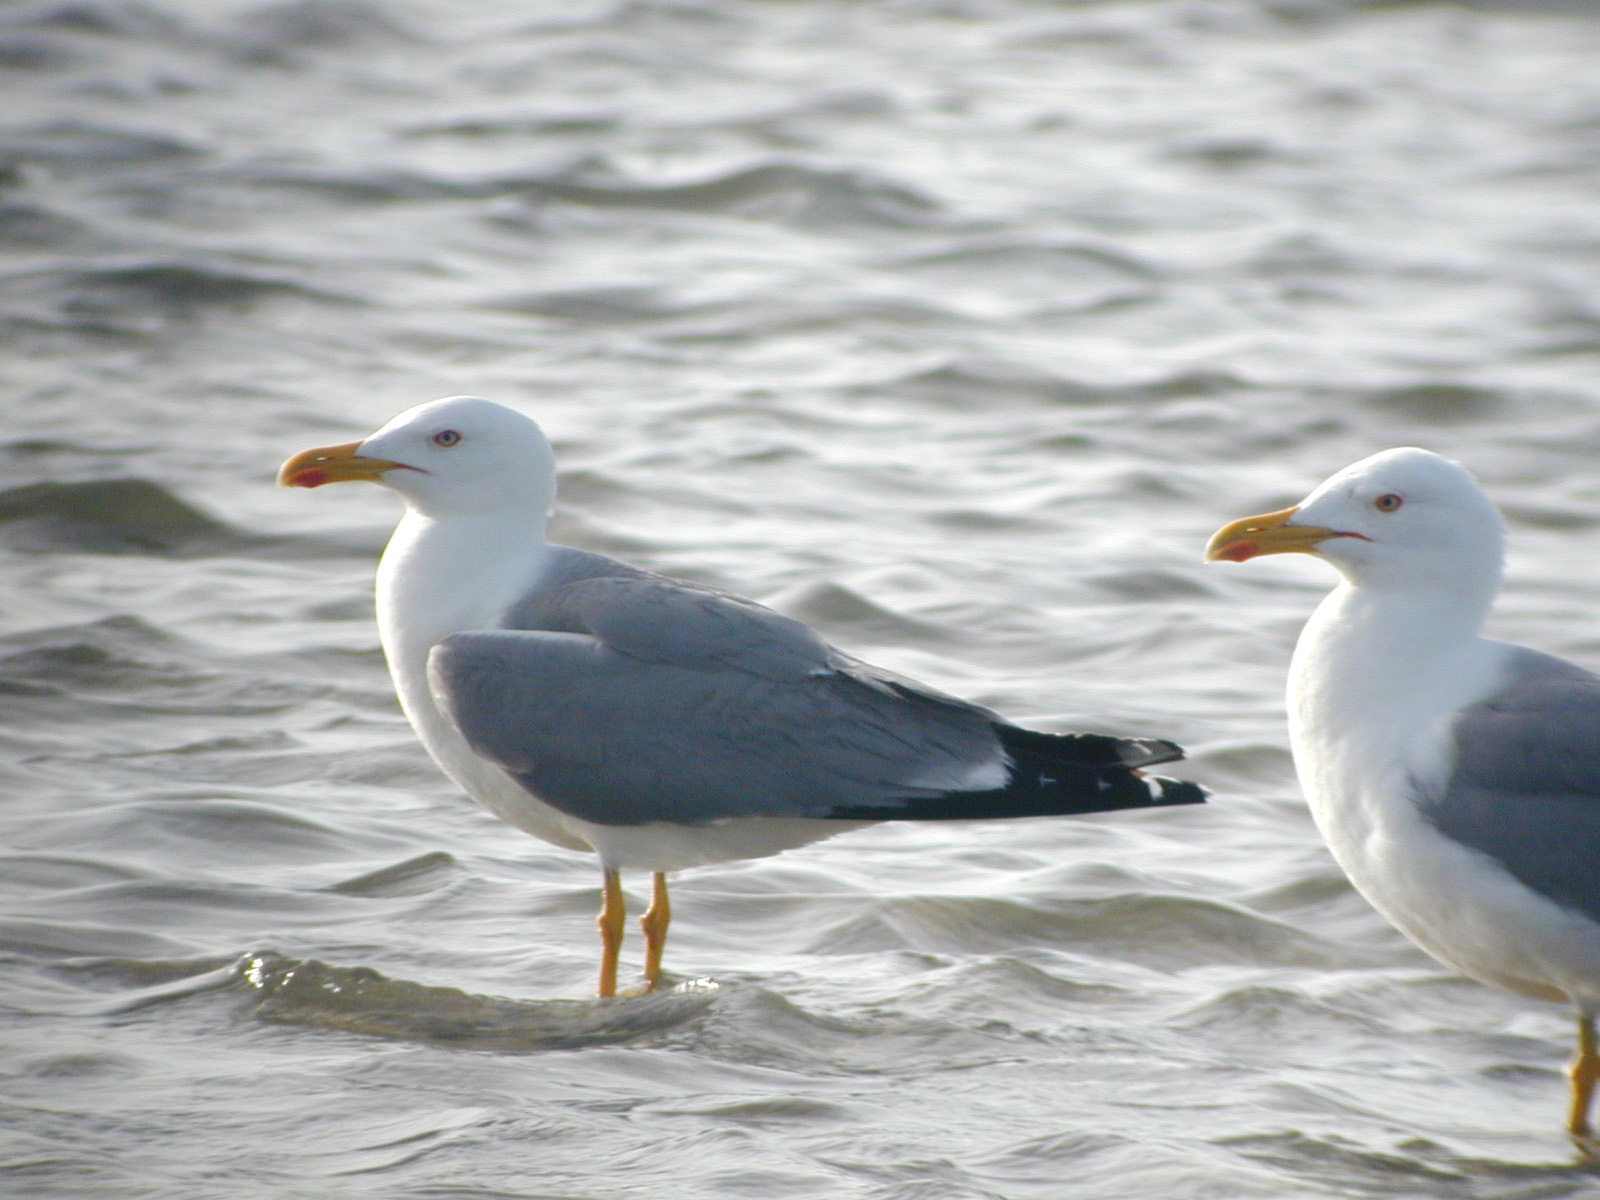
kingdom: Animalia
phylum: Chordata
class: Aves
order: Charadriiformes
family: Laridae
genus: Larus
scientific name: Larus michahellis
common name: Yellow-legged gull
